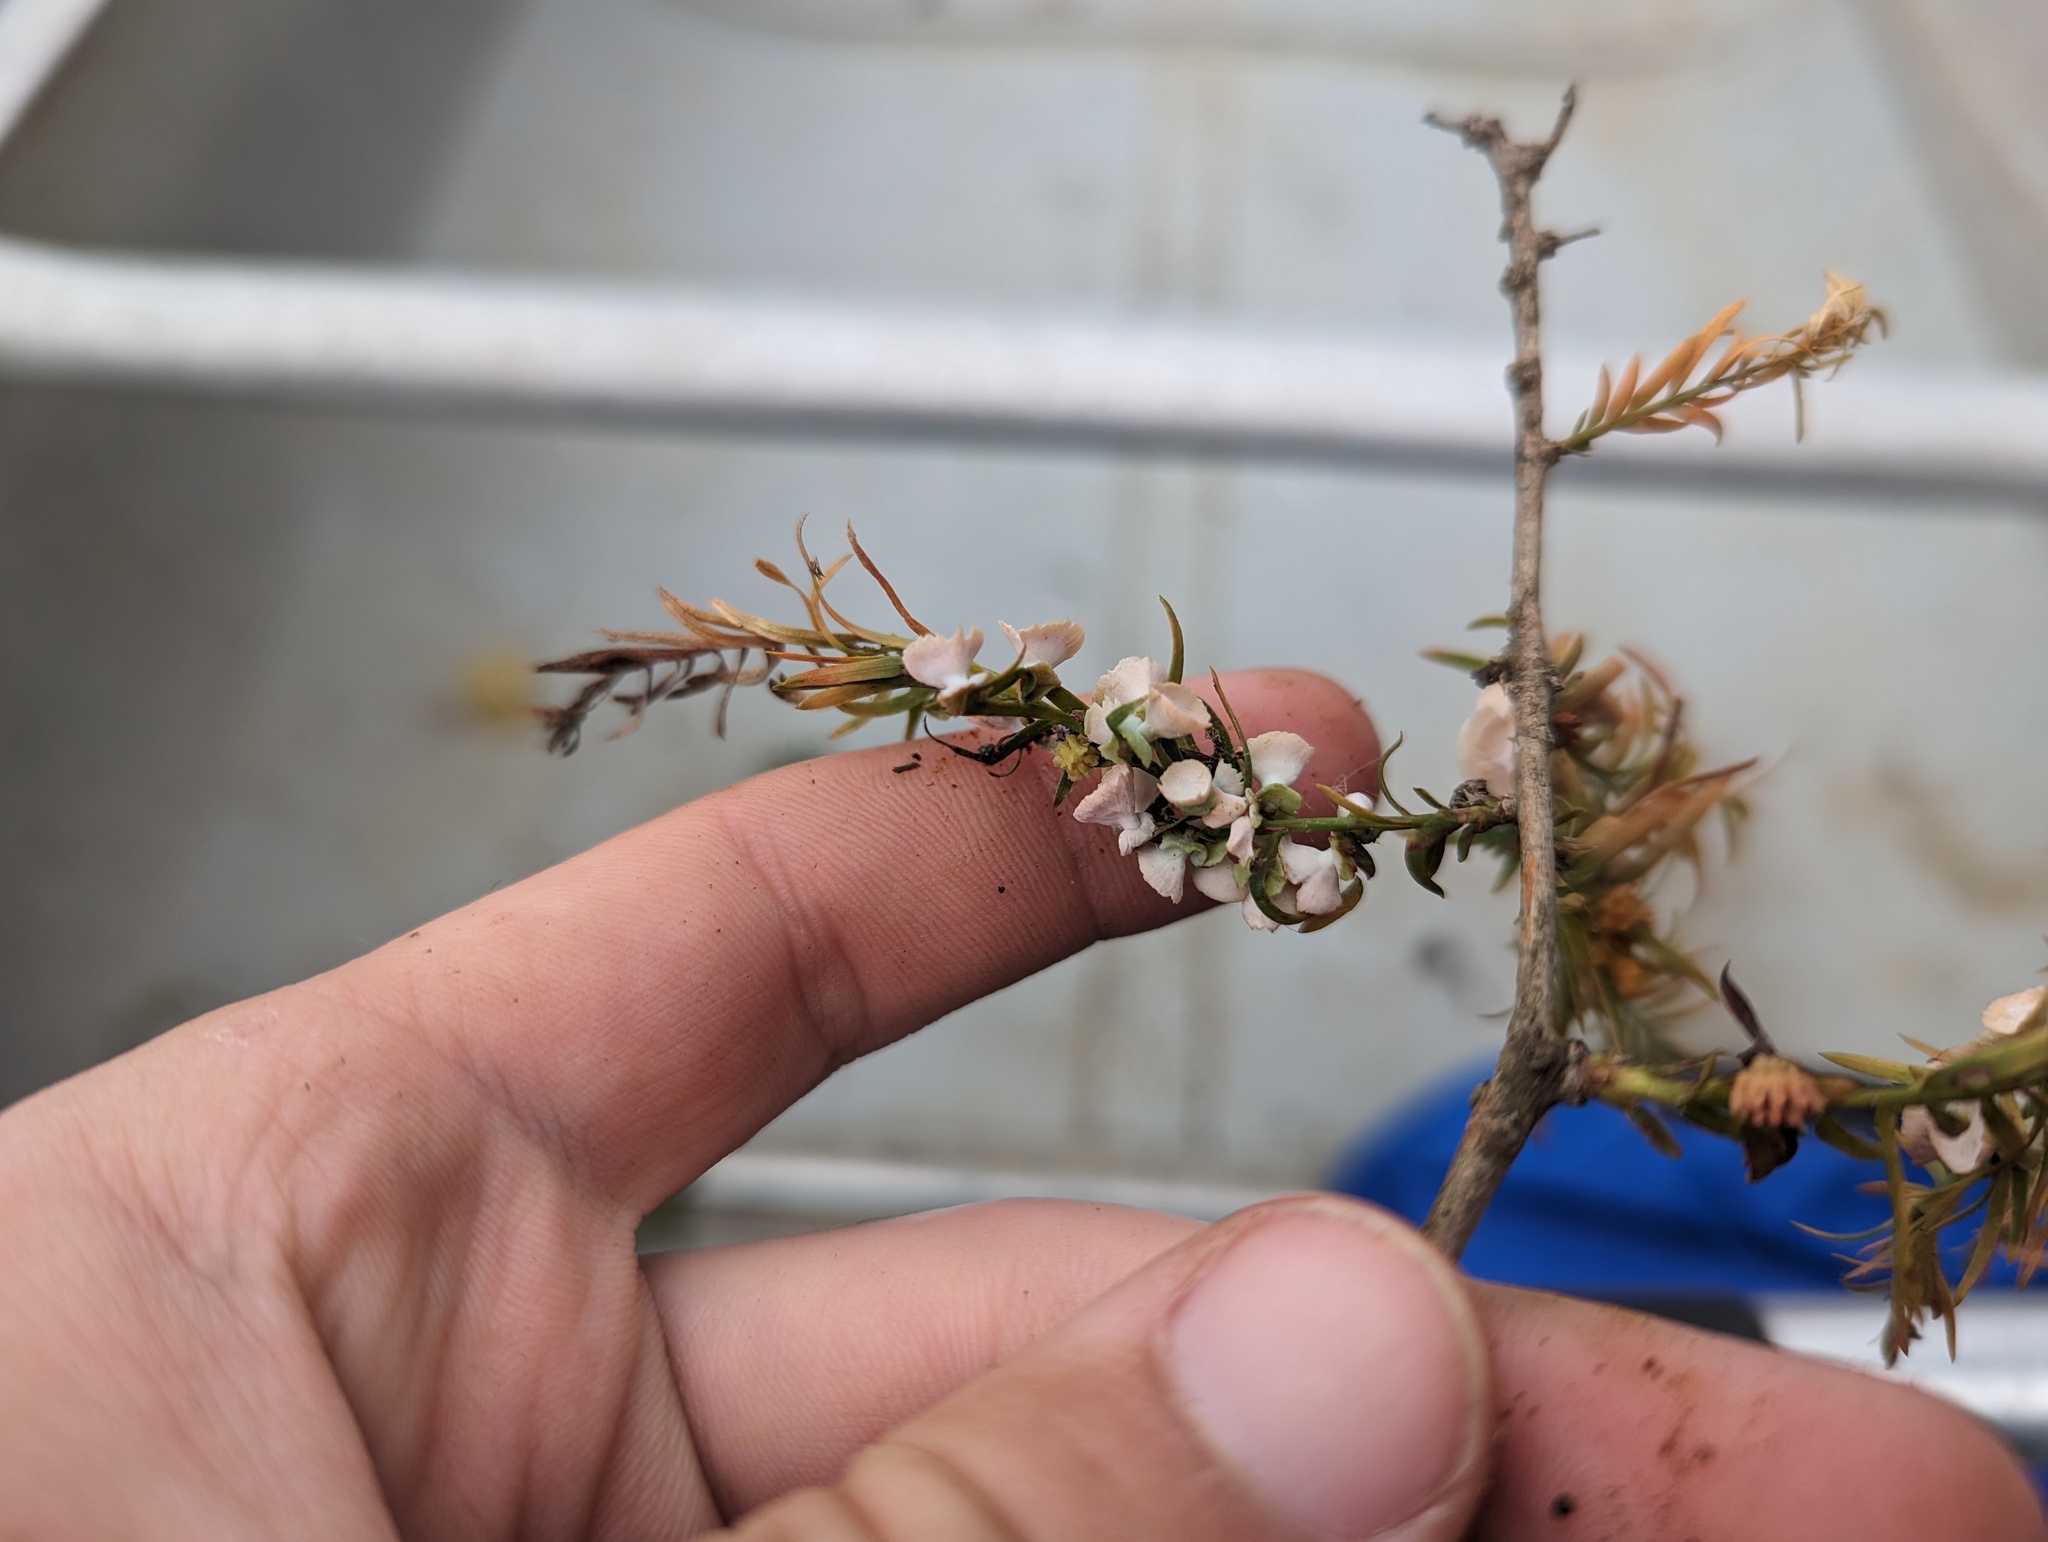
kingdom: Animalia
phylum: Arthropoda
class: Insecta
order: Diptera
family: Cecidomyiidae
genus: Taxodiomyia
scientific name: Taxodiomyia cupressi
